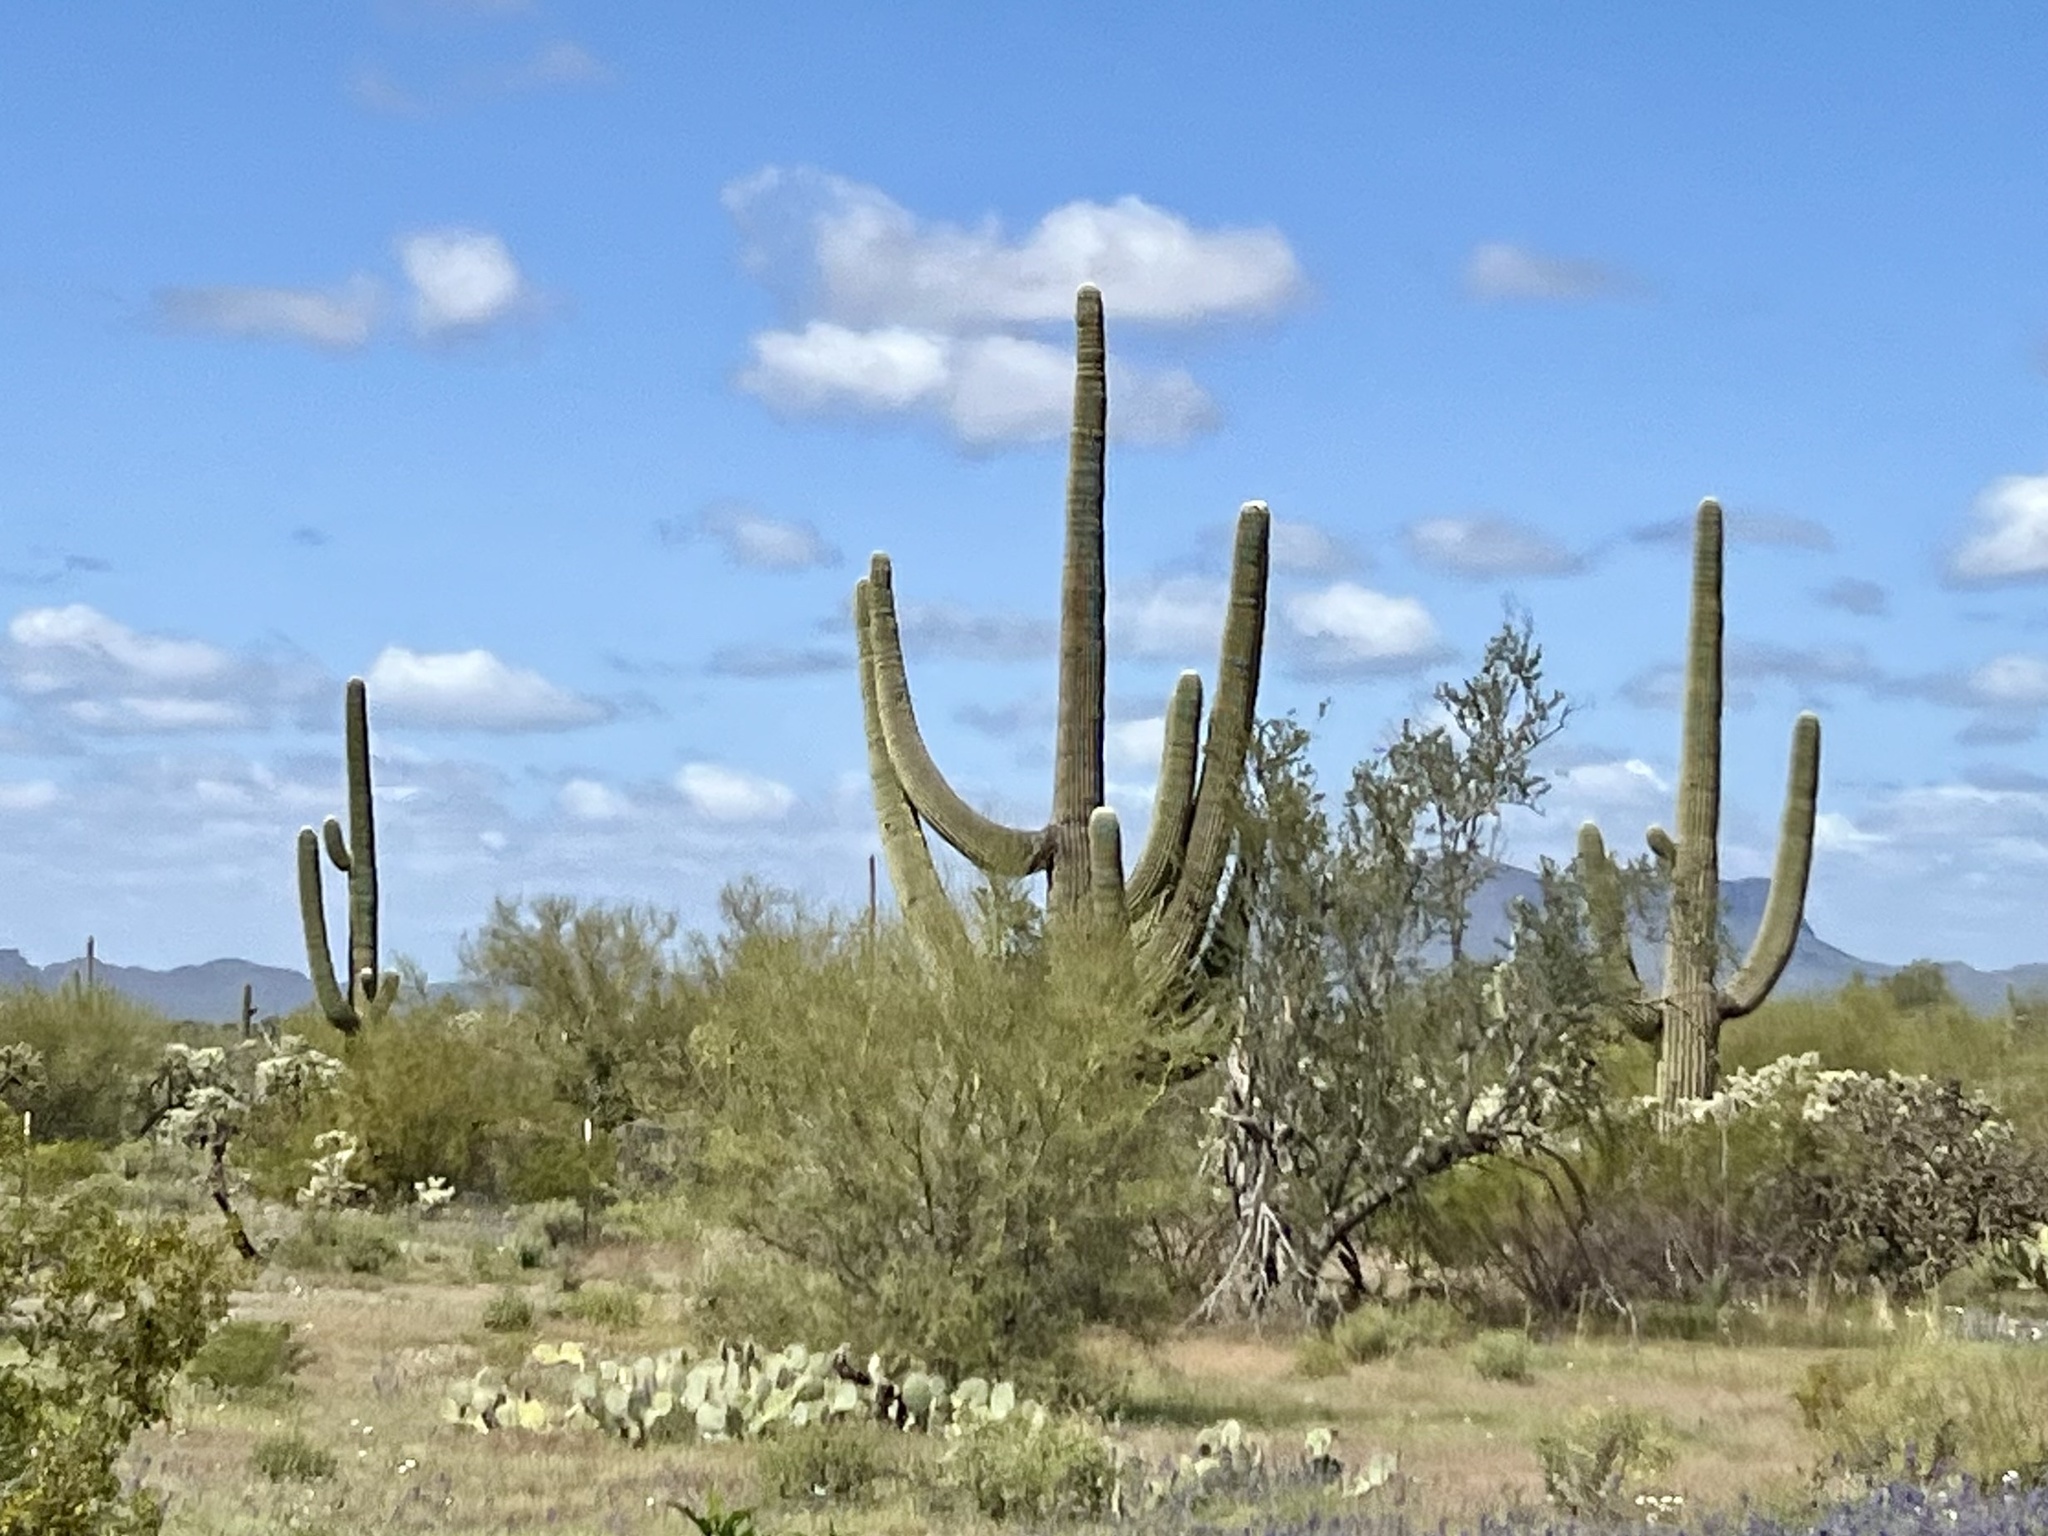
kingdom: Plantae
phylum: Tracheophyta
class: Magnoliopsida
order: Caryophyllales
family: Cactaceae
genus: Carnegiea
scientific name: Carnegiea gigantea
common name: Saguaro
